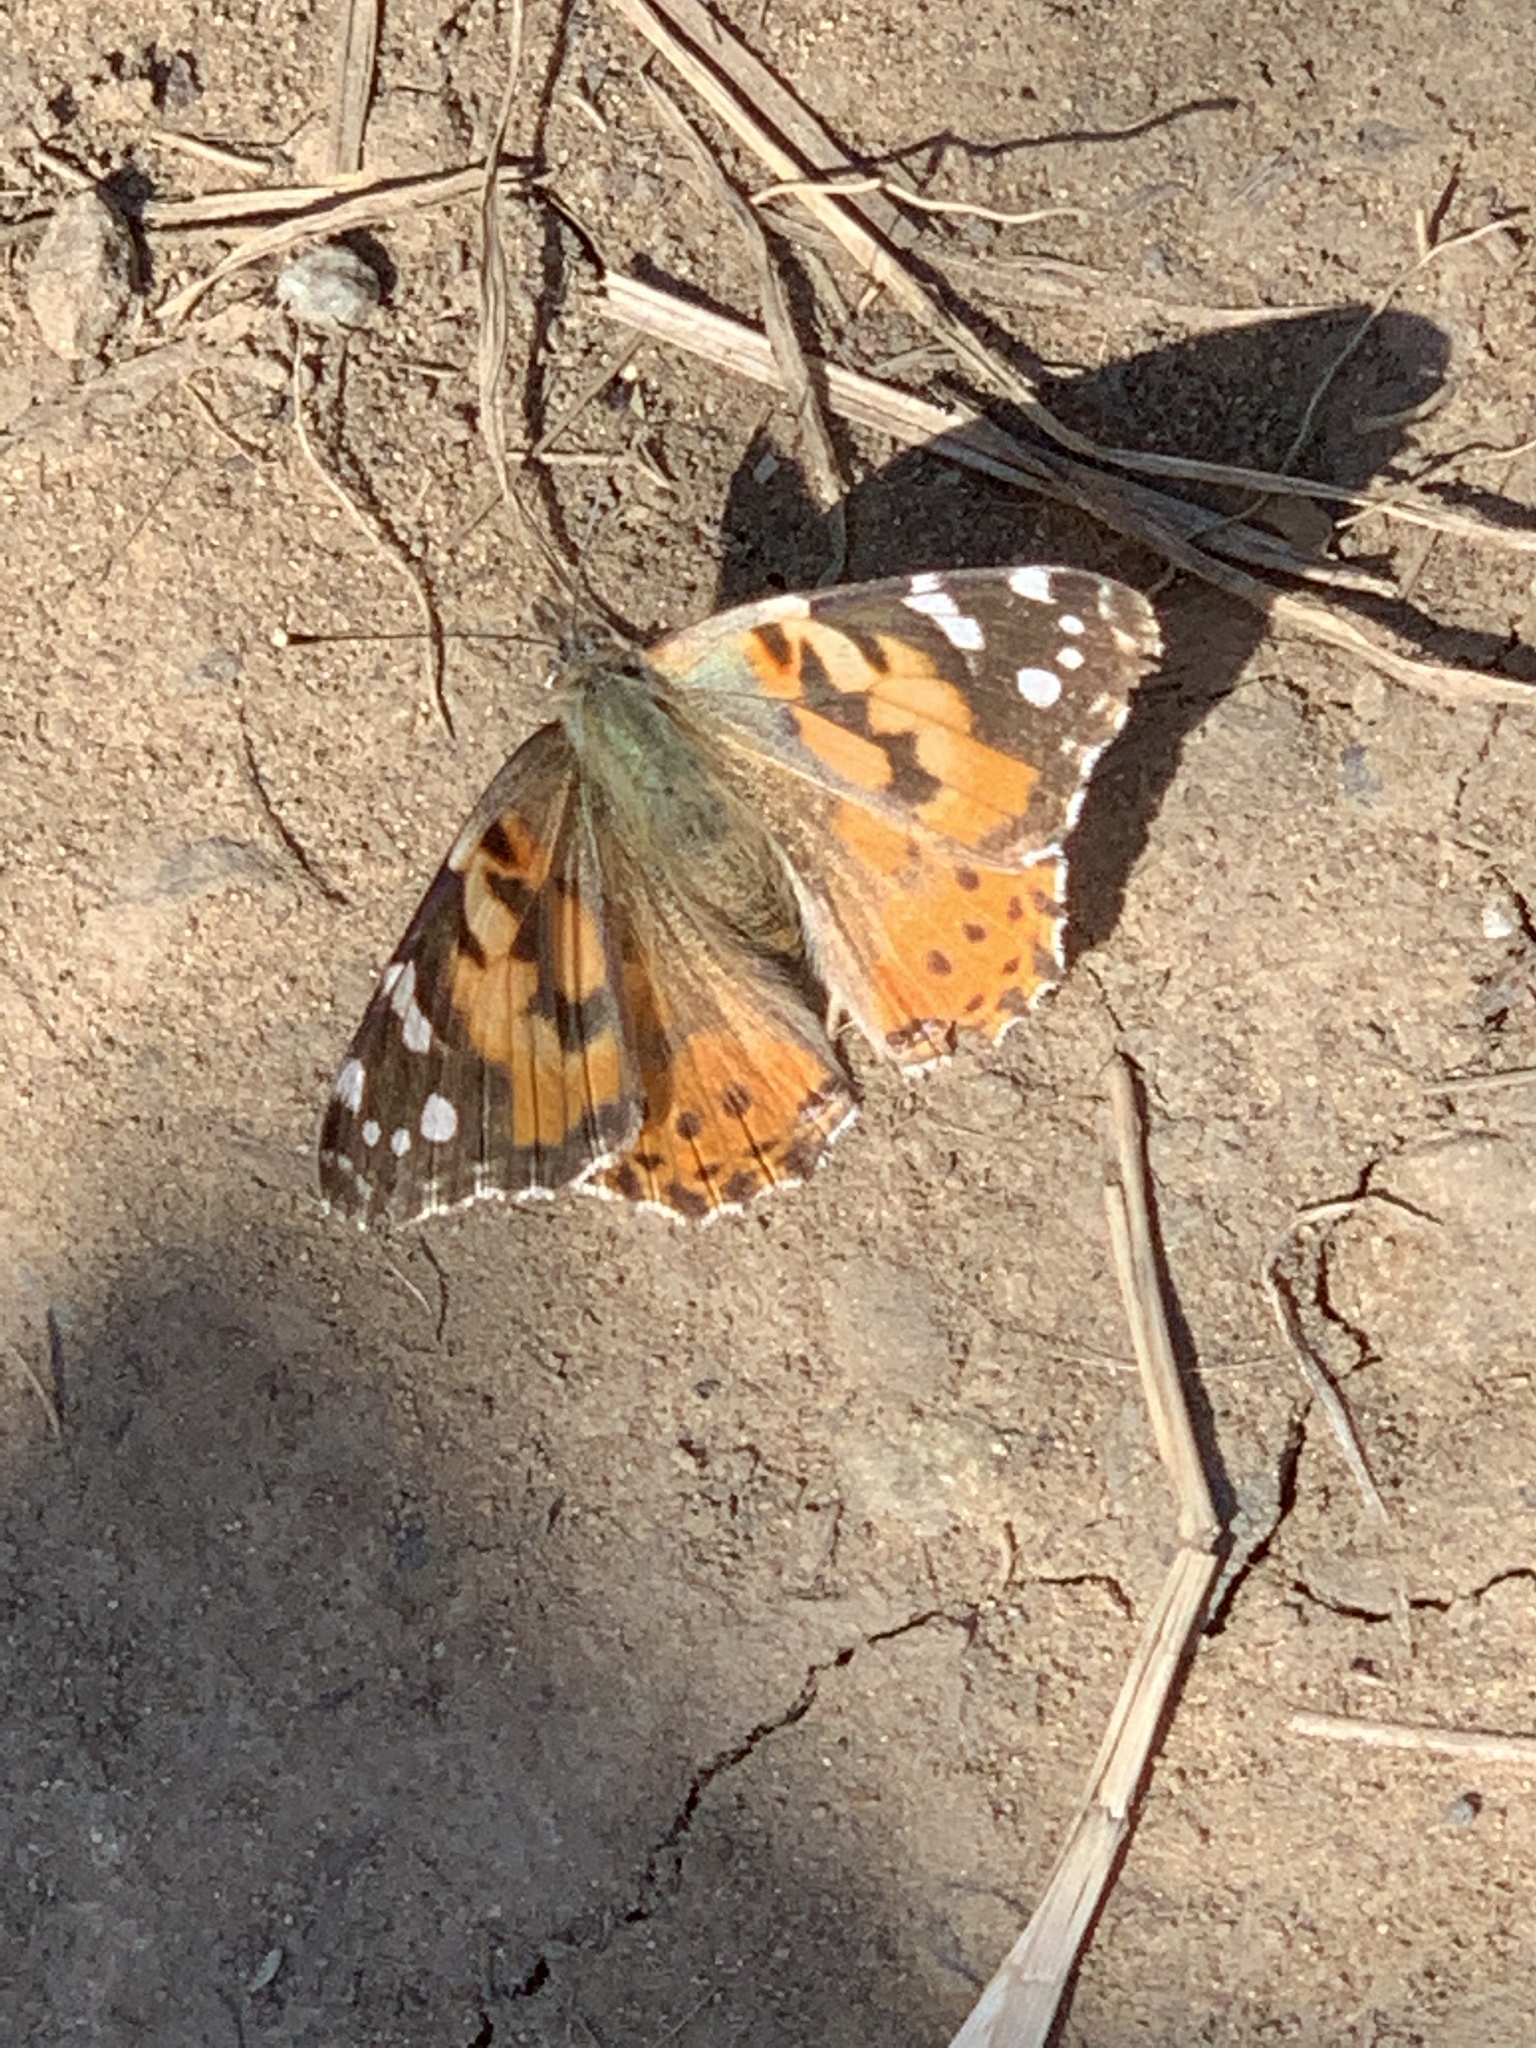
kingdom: Animalia
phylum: Arthropoda
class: Insecta
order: Lepidoptera
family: Nymphalidae
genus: Vanessa
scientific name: Vanessa cardui
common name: Painted lady
